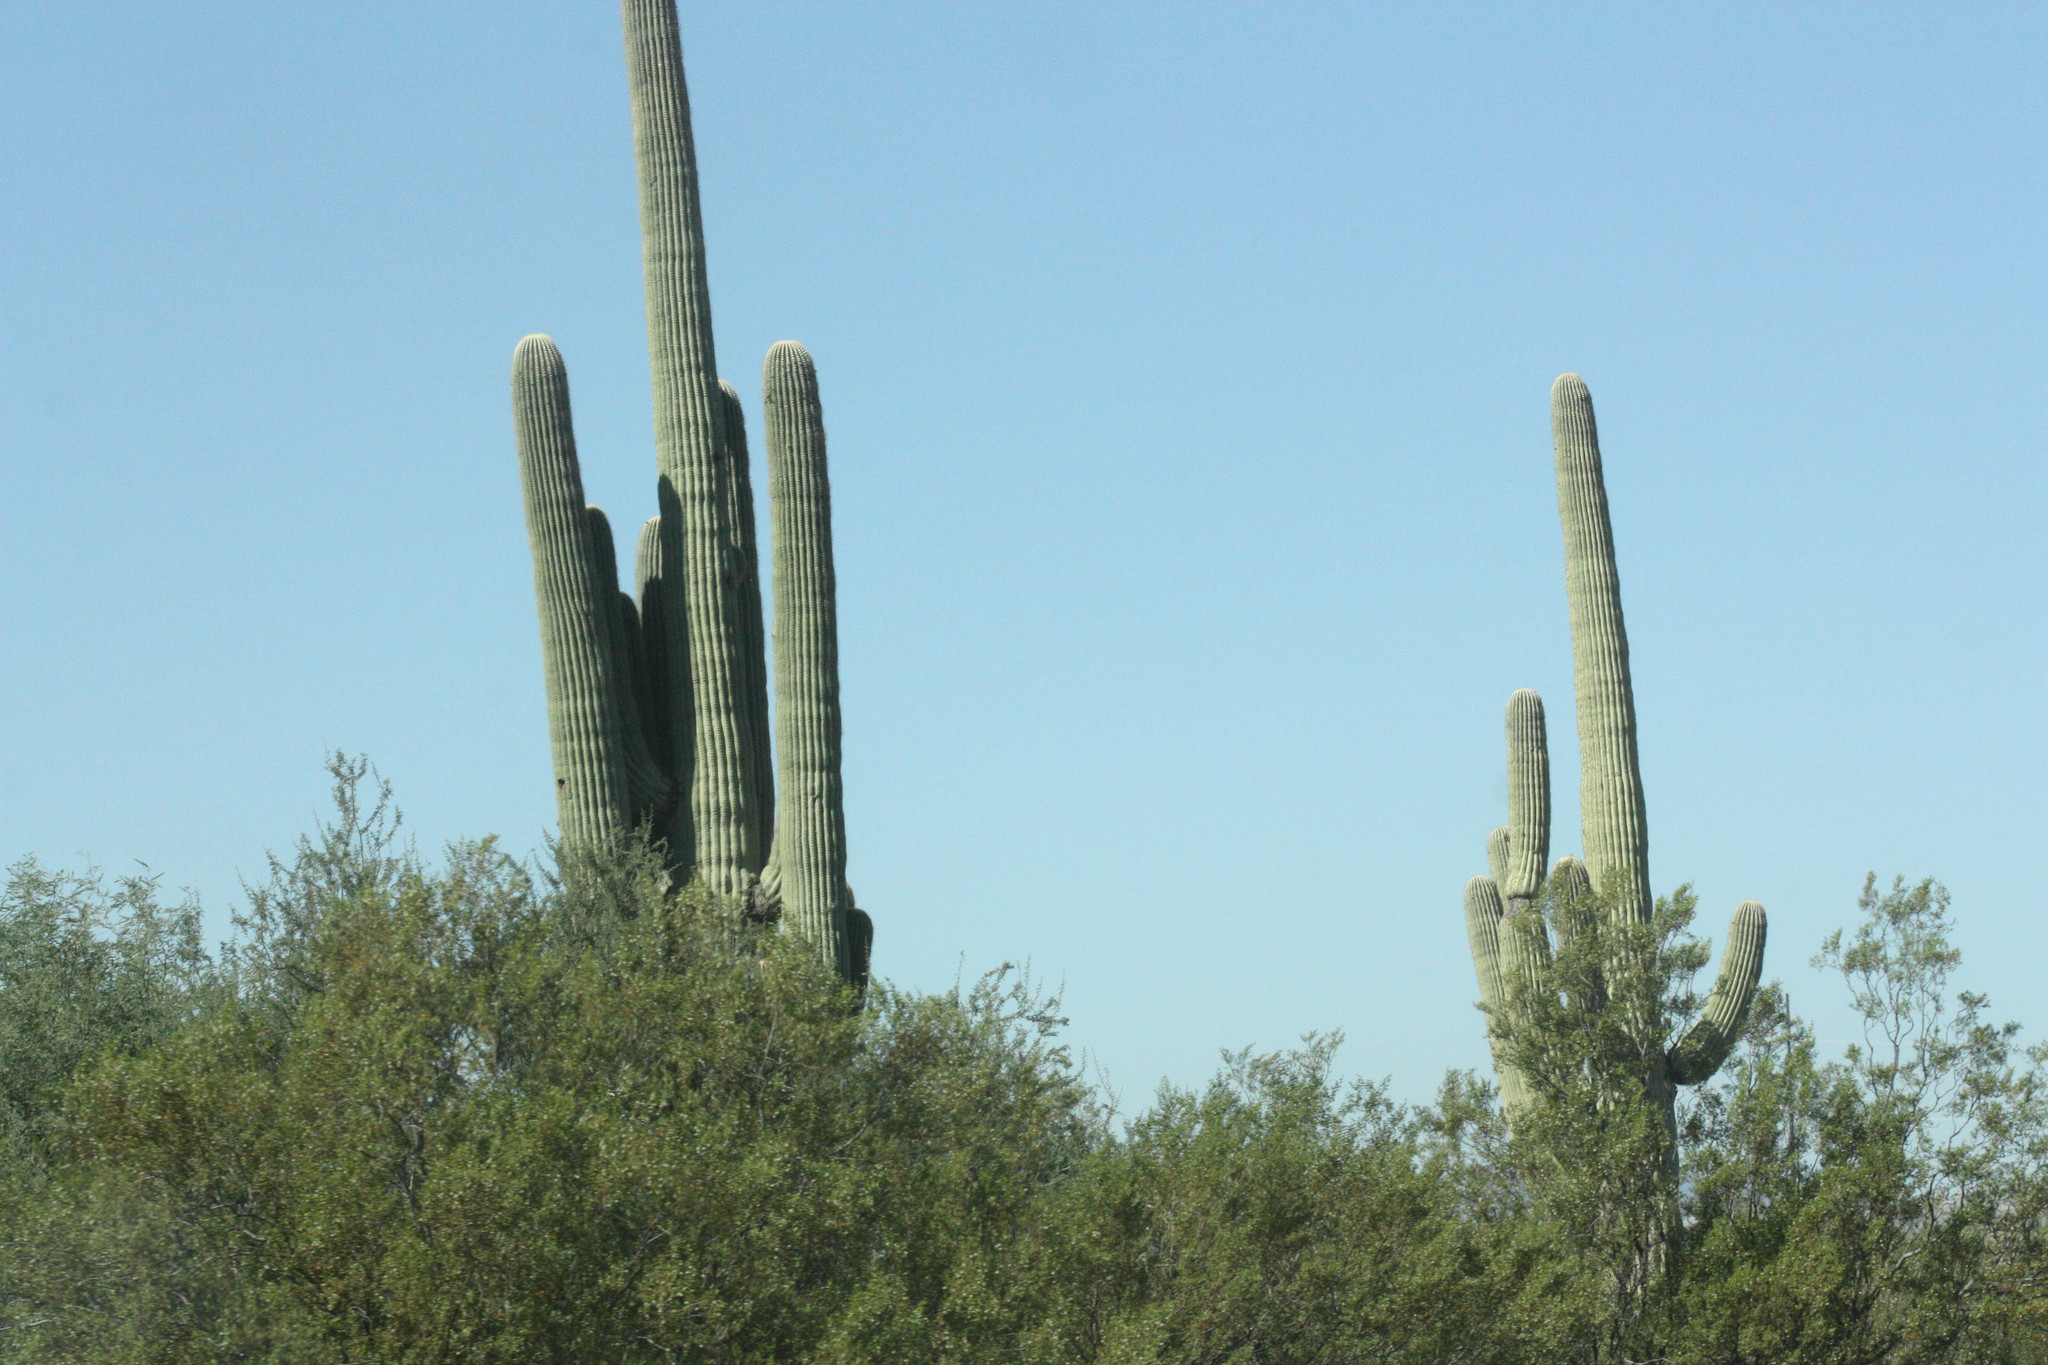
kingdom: Plantae
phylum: Tracheophyta
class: Magnoliopsida
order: Caryophyllales
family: Cactaceae
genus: Carnegiea
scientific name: Carnegiea gigantea
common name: Saguaro
